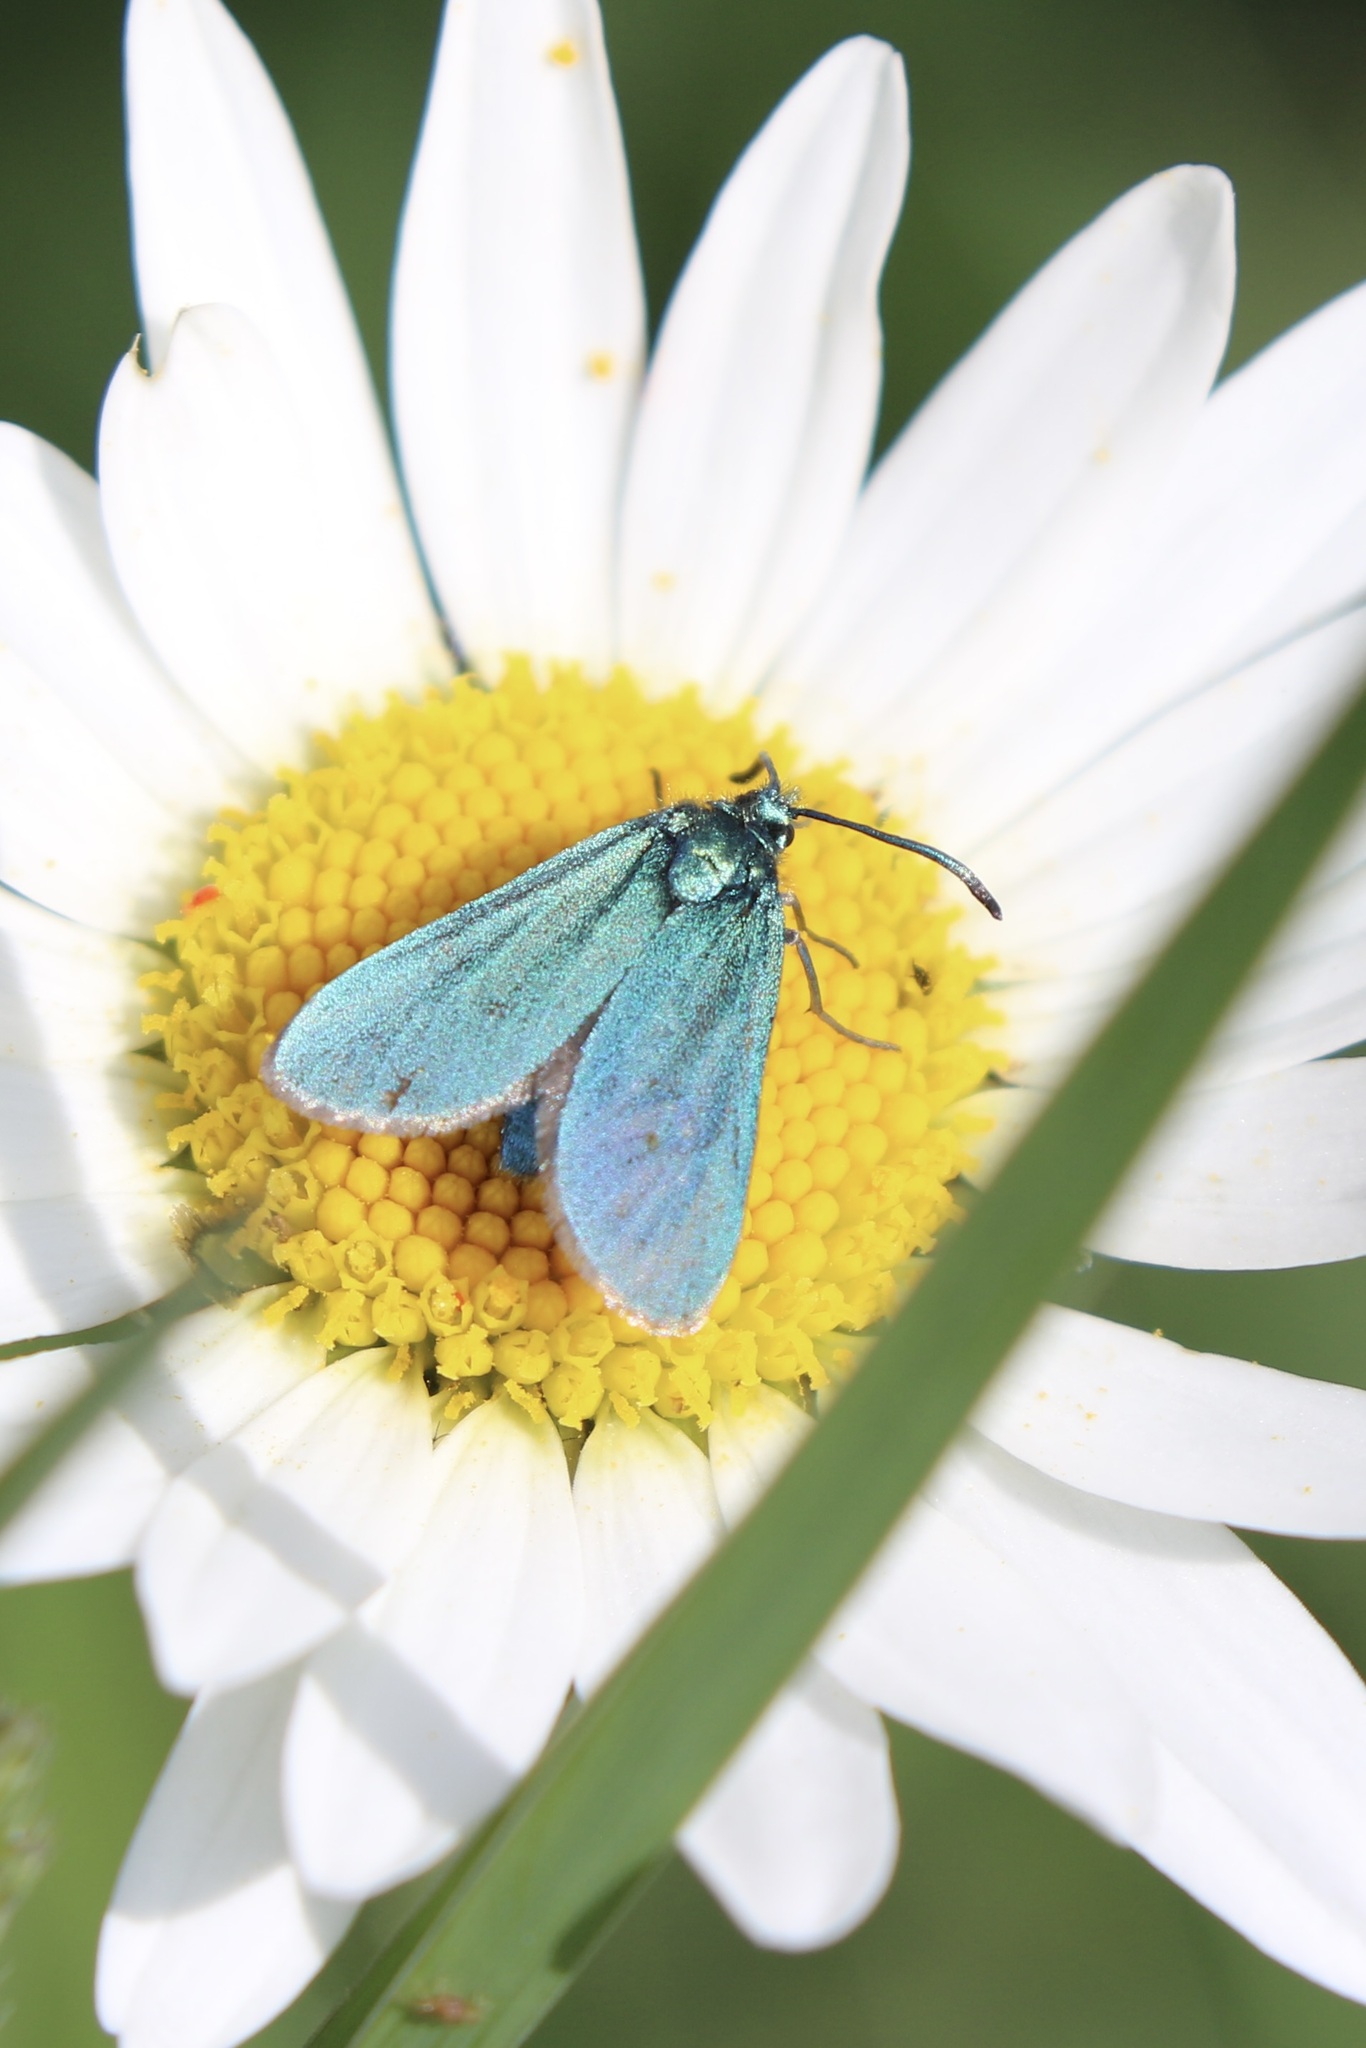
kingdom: Animalia
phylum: Arthropoda
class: Insecta
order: Lepidoptera
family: Zygaenidae
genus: Adscita
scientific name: Adscita statices
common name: Forester
